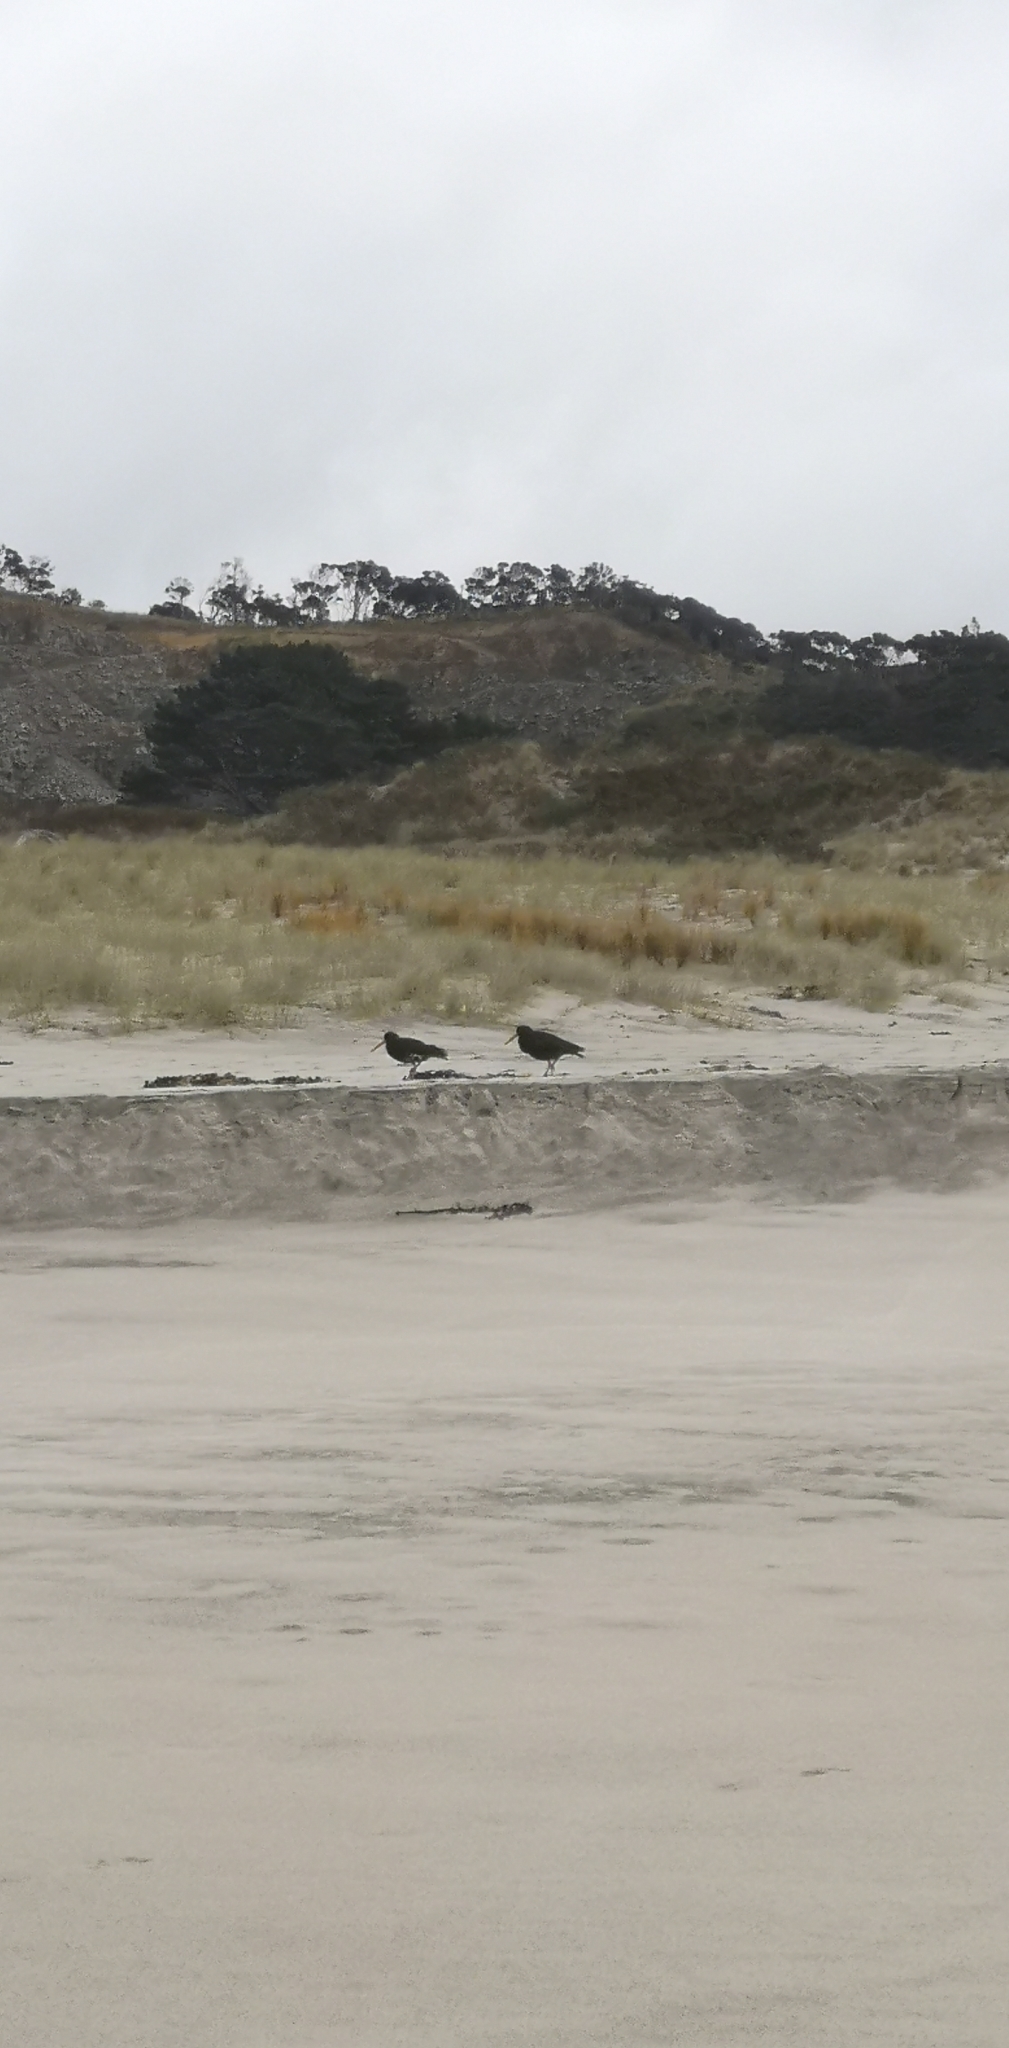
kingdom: Animalia
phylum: Chordata
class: Aves
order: Charadriiformes
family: Haematopodidae
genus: Haematopus
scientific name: Haematopus unicolor
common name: Variable oystercatcher
